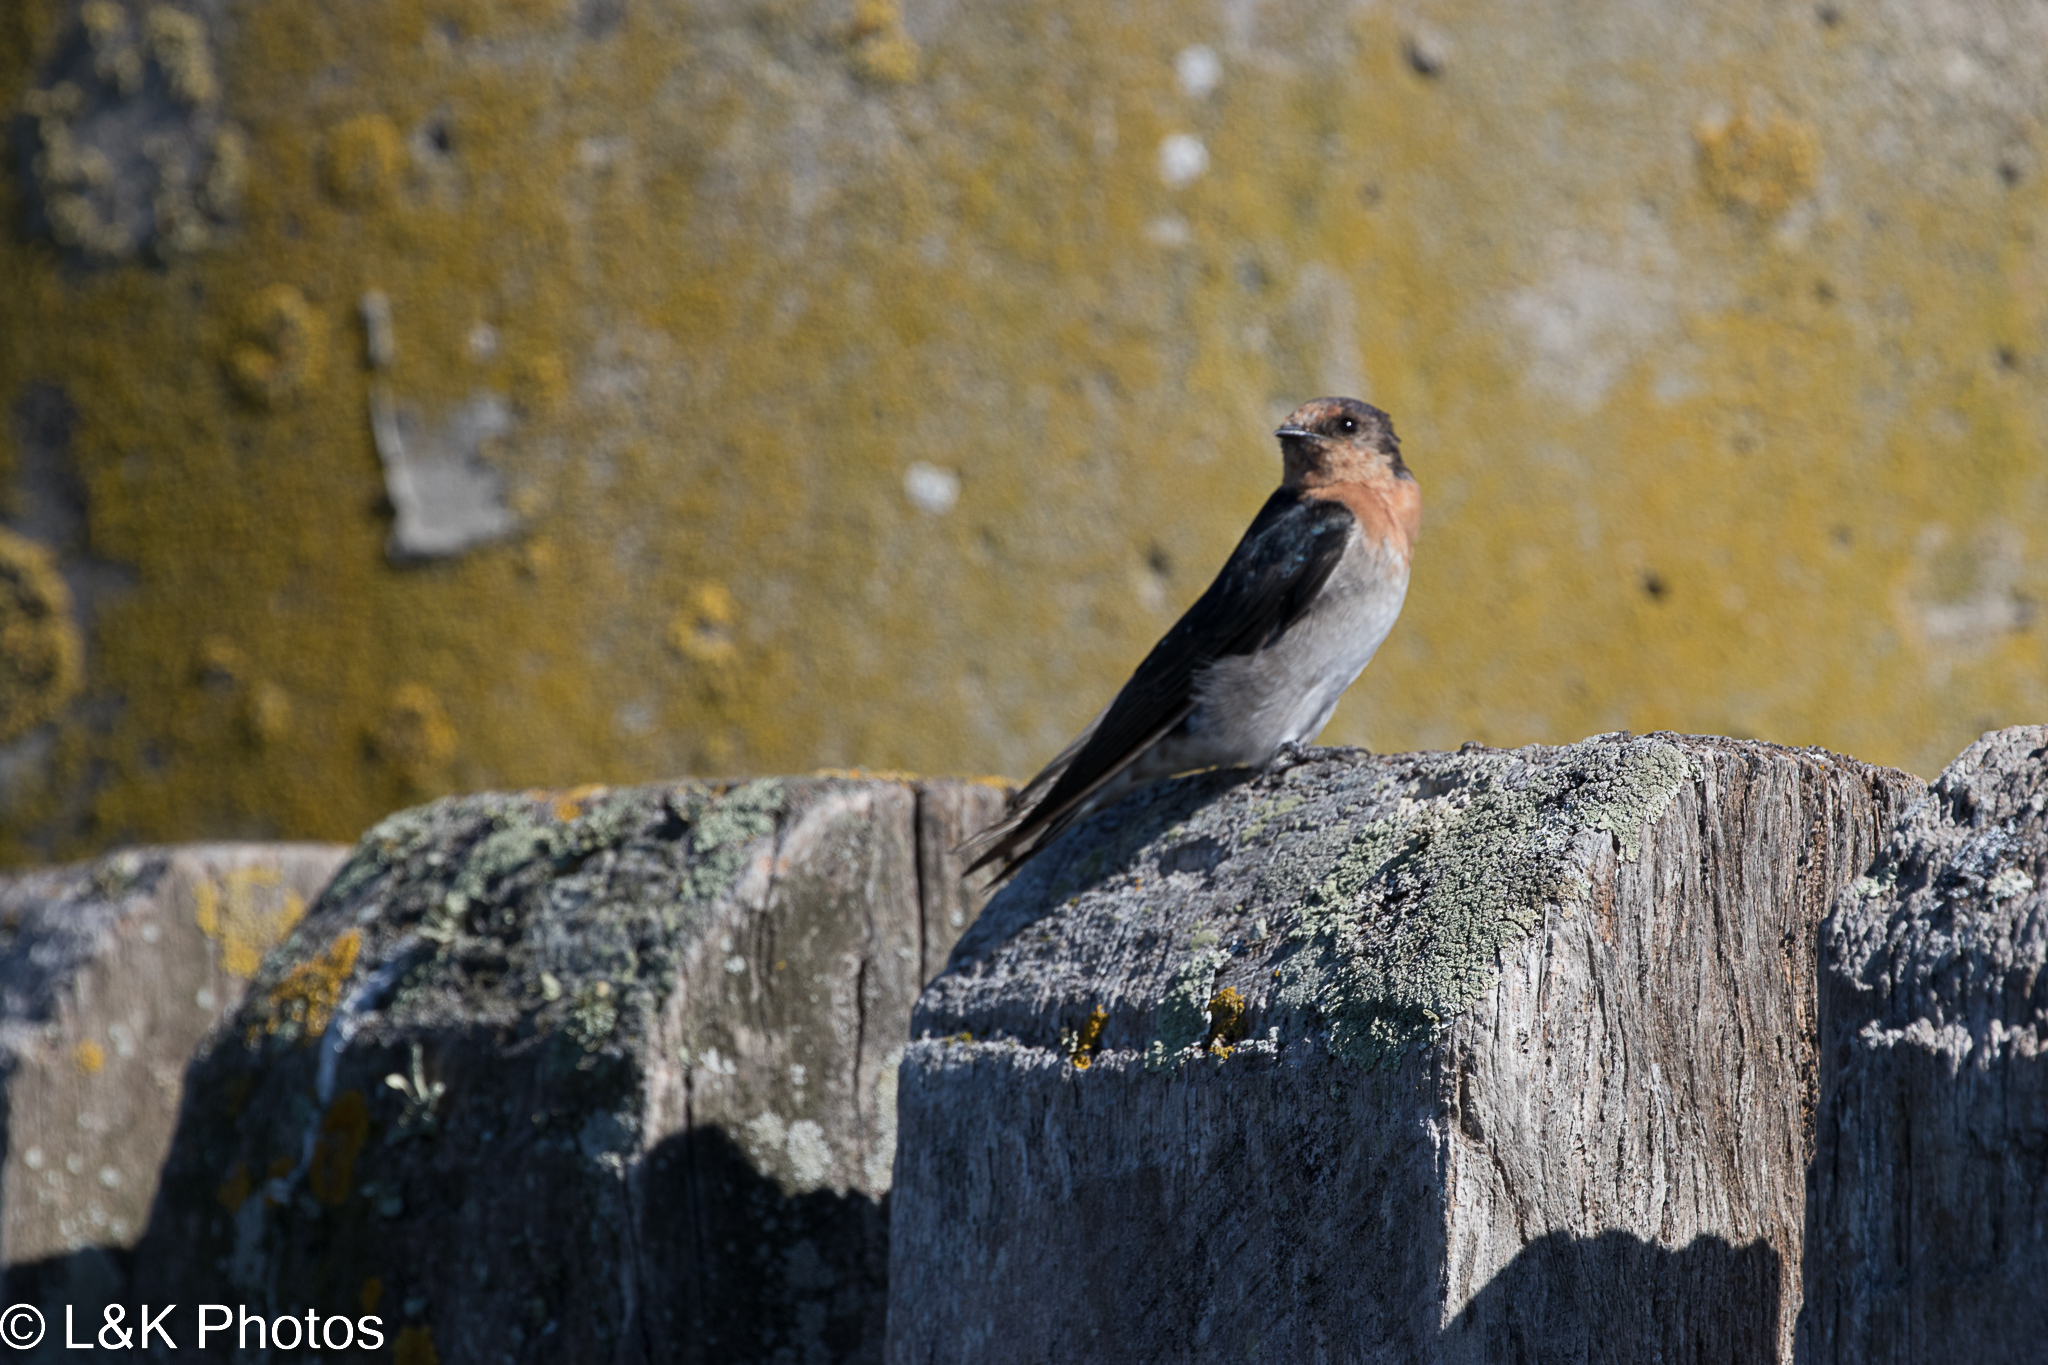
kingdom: Animalia
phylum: Chordata
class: Aves
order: Passeriformes
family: Hirundinidae
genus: Hirundo
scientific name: Hirundo neoxena
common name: Welcome swallow
